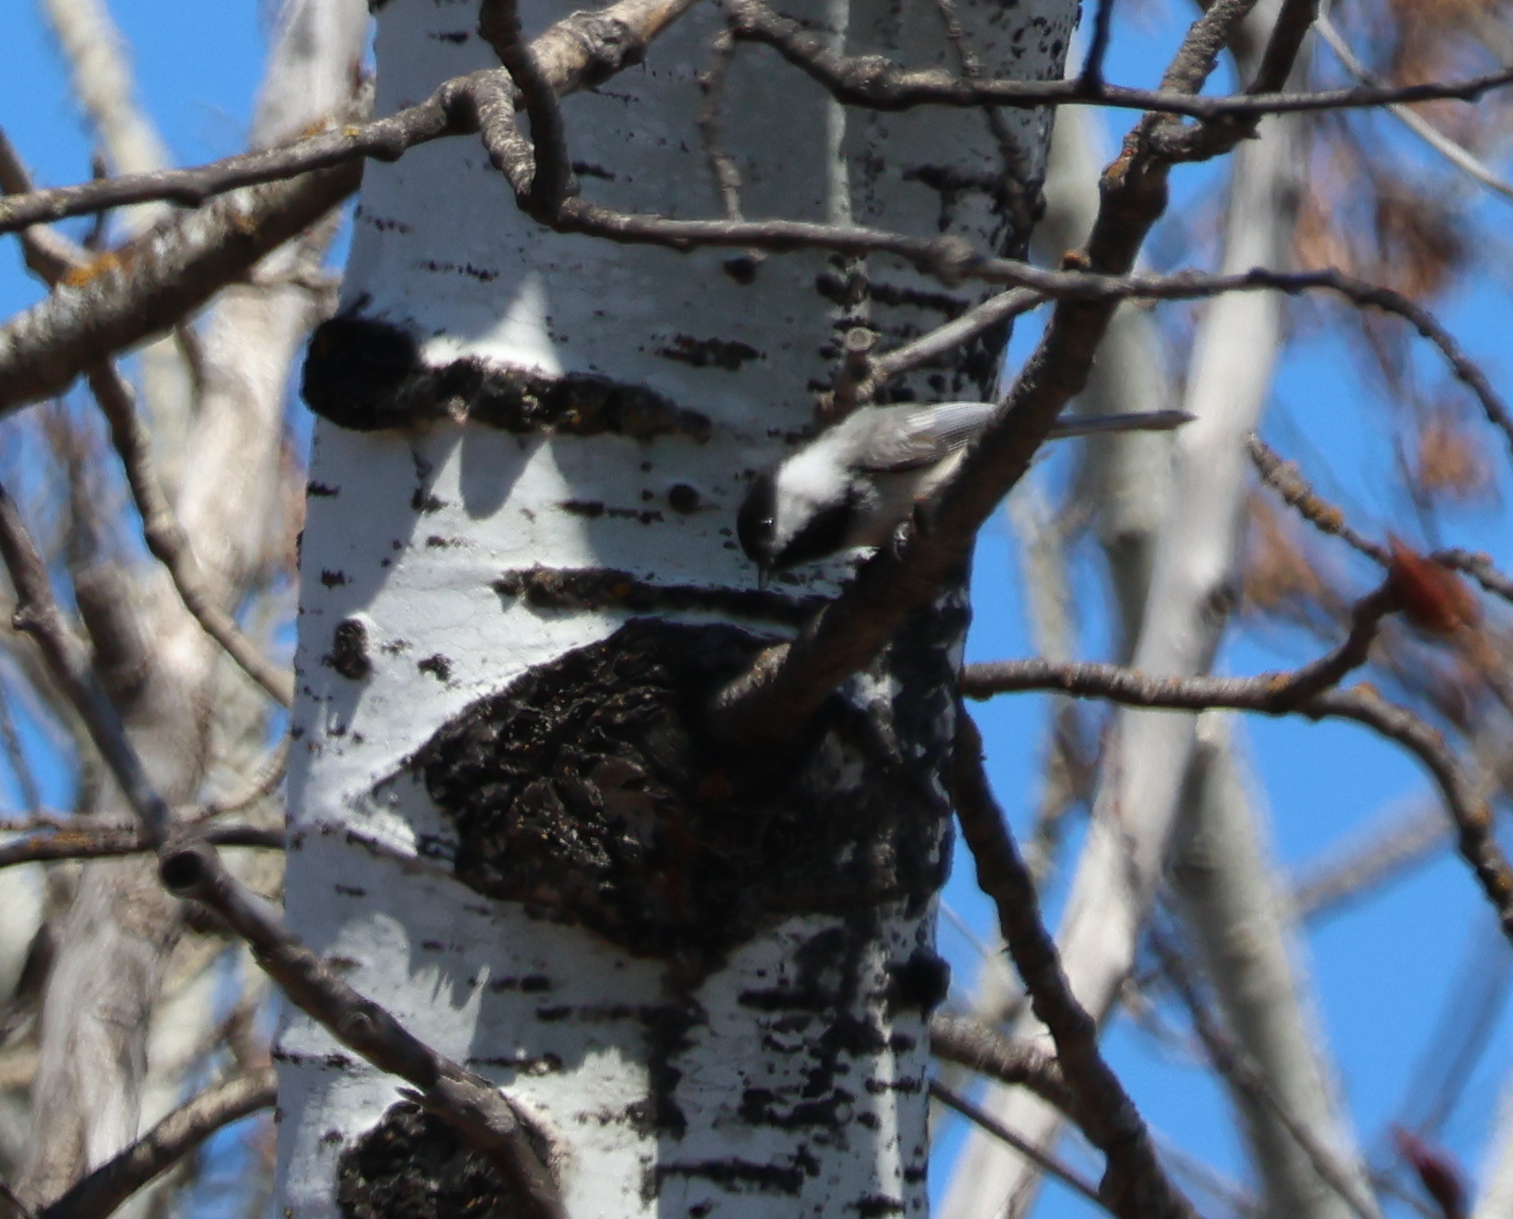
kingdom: Animalia
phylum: Chordata
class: Aves
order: Passeriformes
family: Paridae
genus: Poecile
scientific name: Poecile atricapillus
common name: Black-capped chickadee
